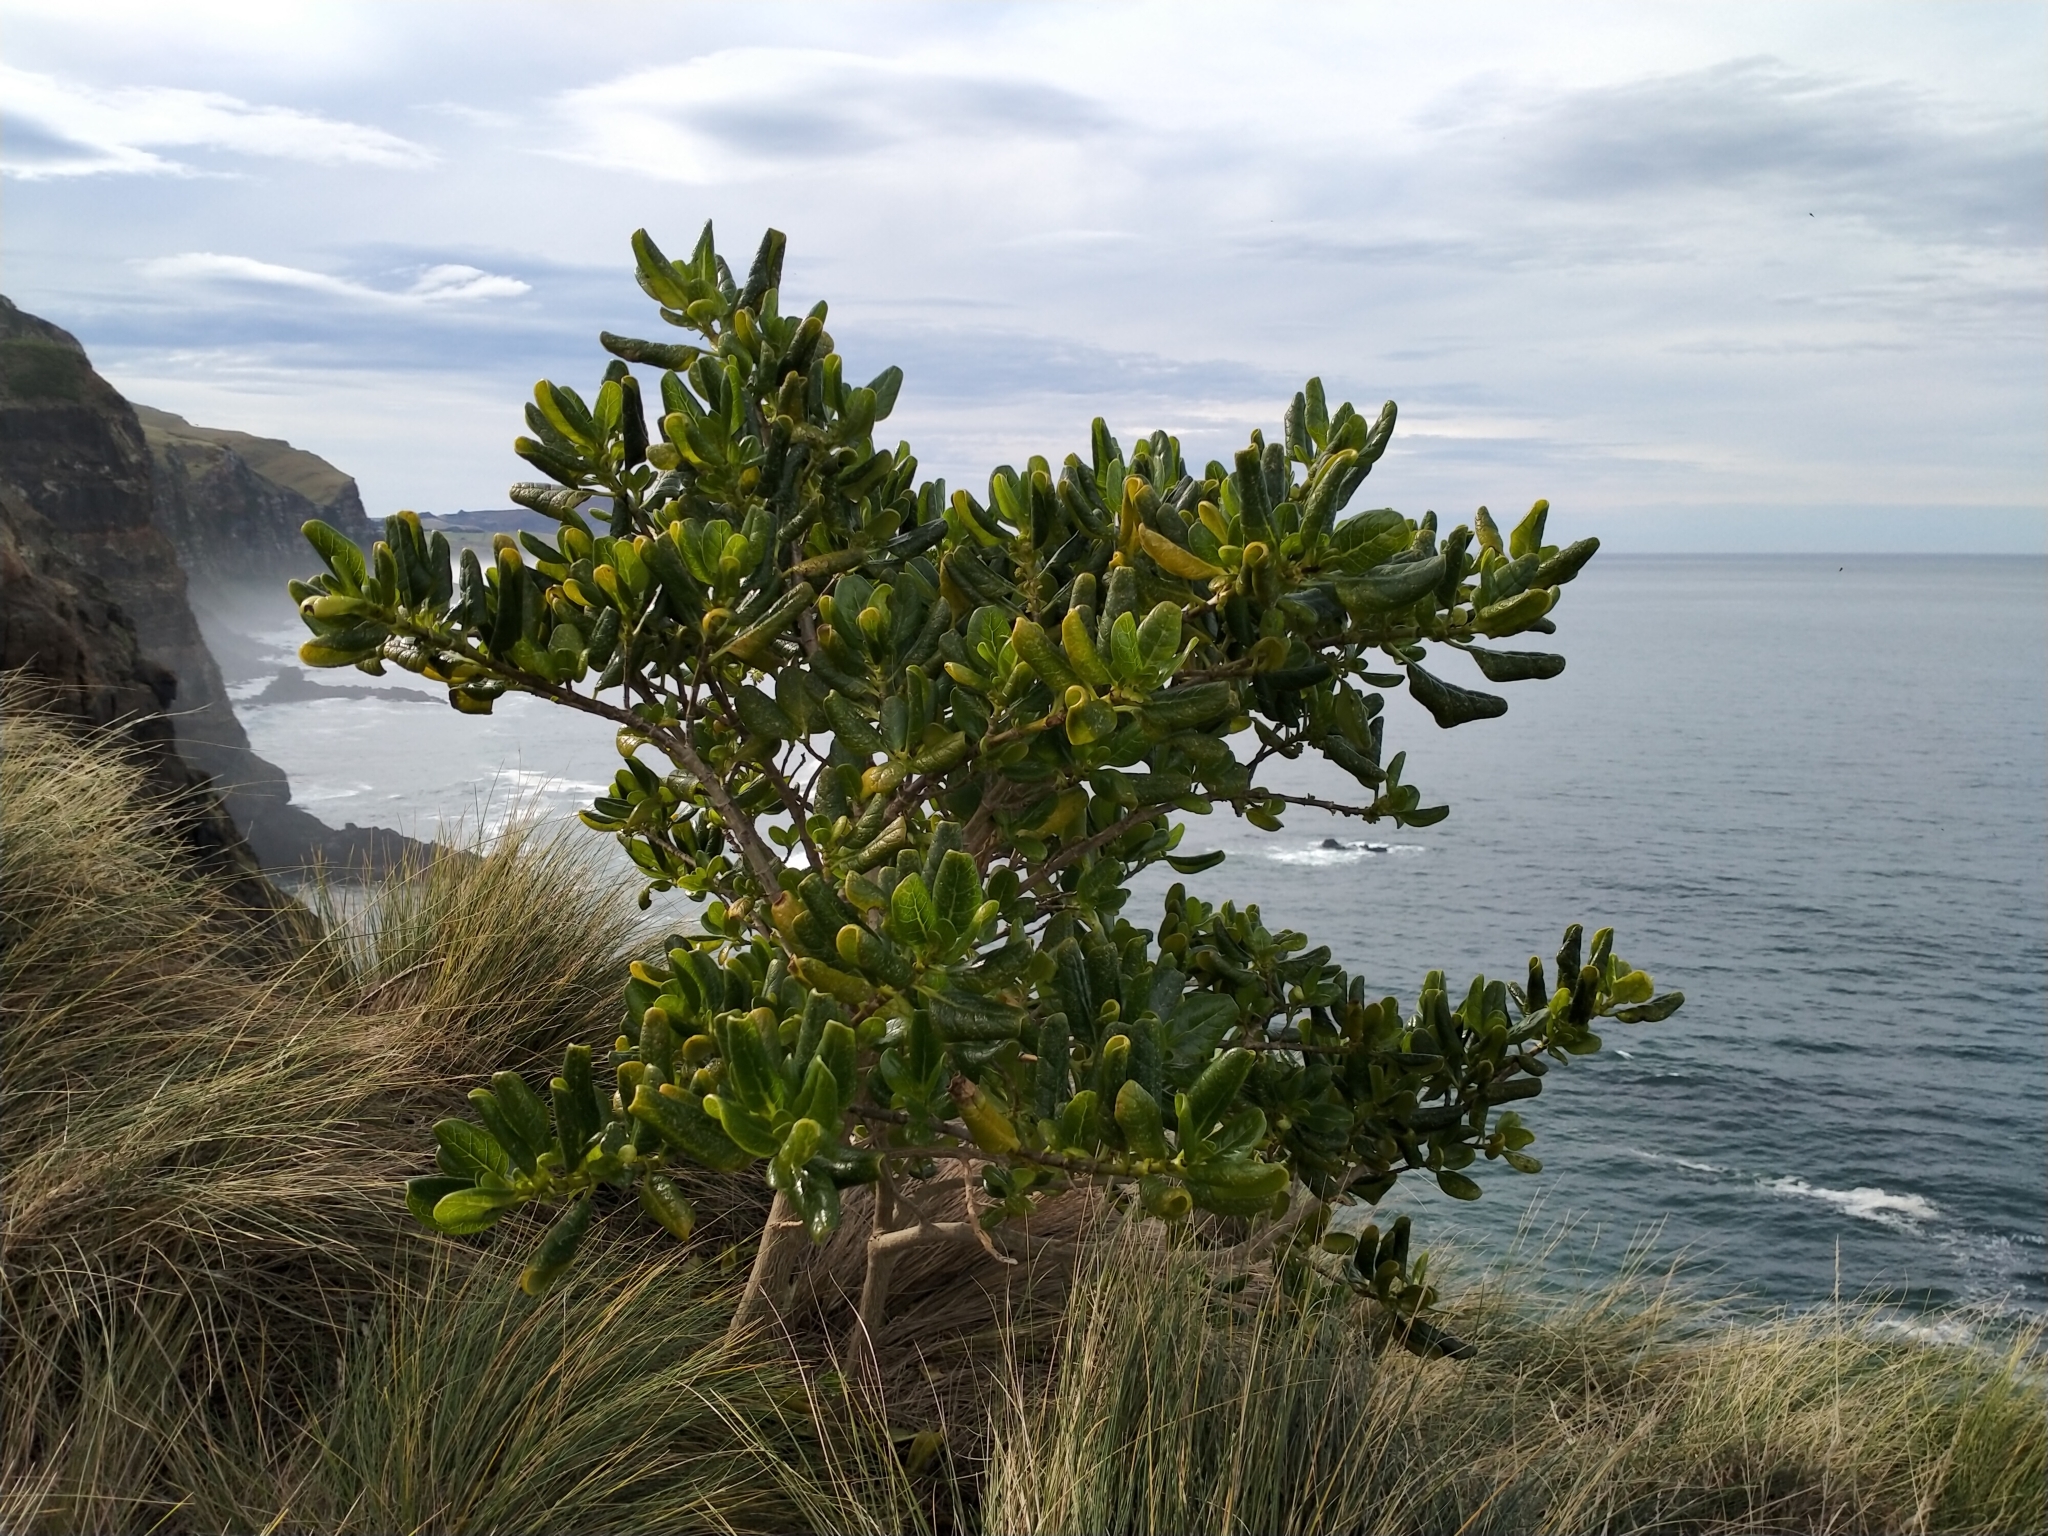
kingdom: Plantae
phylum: Tracheophyta
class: Magnoliopsida
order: Gentianales
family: Rubiaceae
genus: Coprosma
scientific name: Coprosma repens
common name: Tree bedstraw
